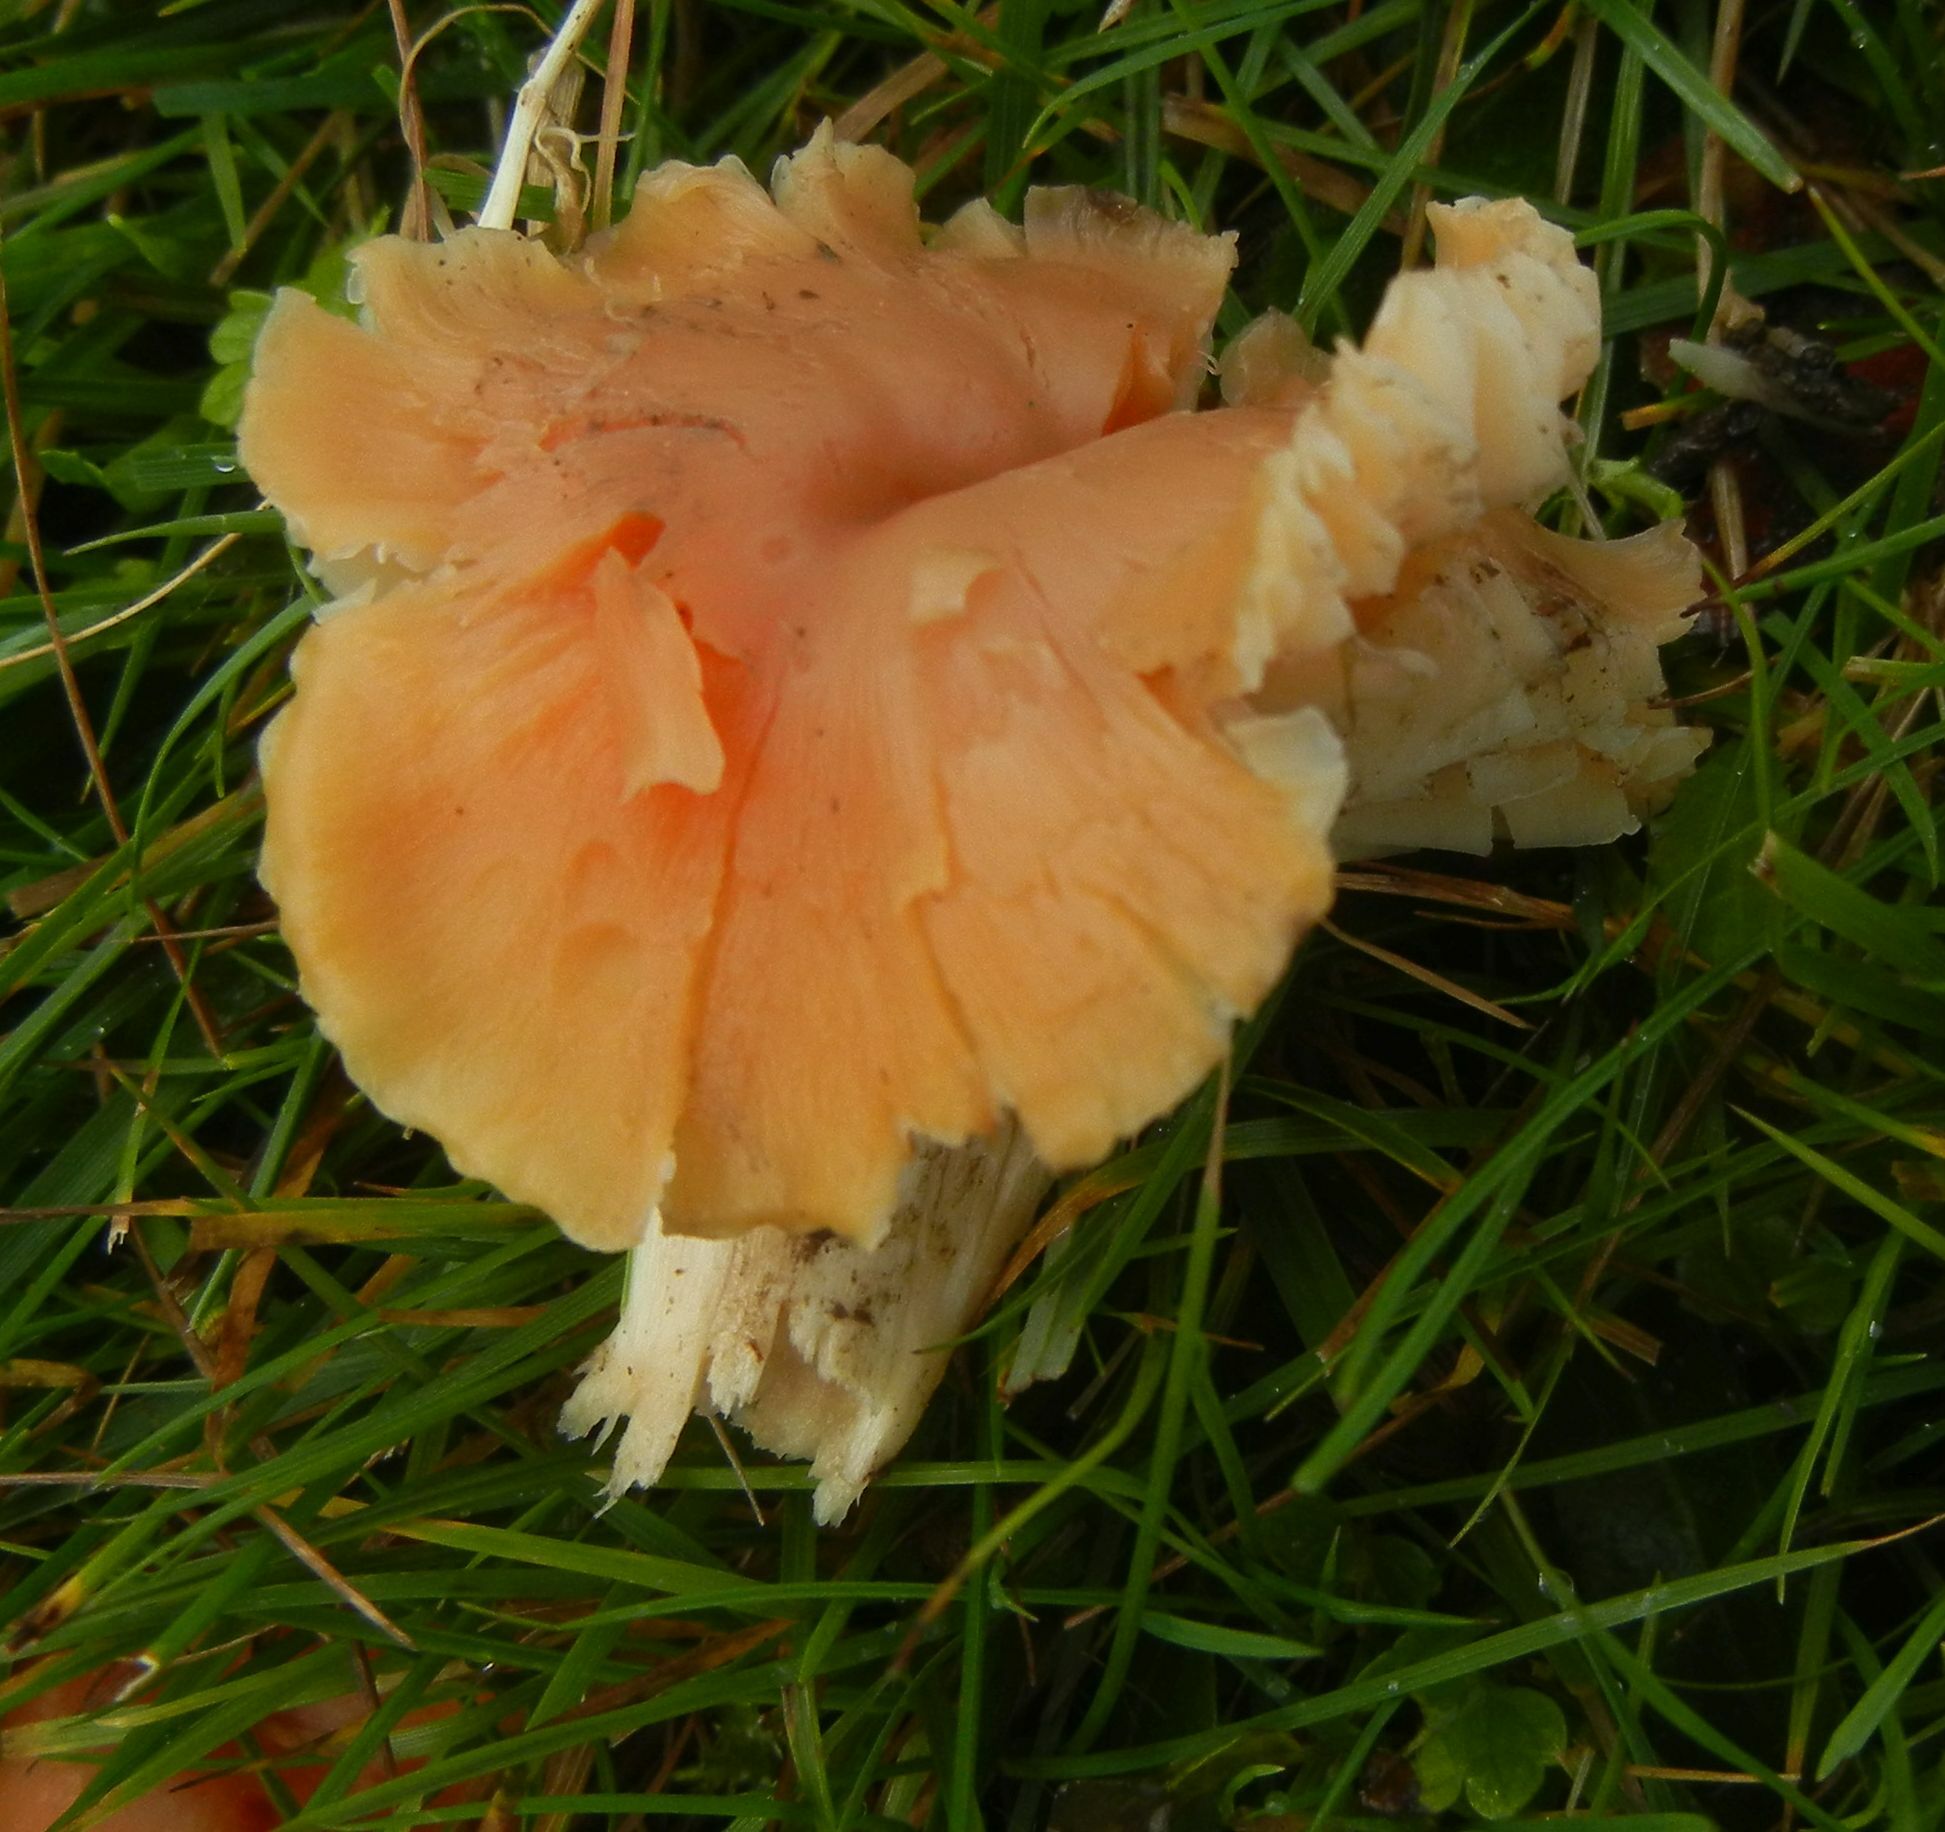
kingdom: Fungi
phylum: Basidiomycota
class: Agaricomycetes
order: Agaricales
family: Hygrophoraceae
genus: Cuphophyllus
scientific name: Cuphophyllus pratensis
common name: Meadow waxcap
